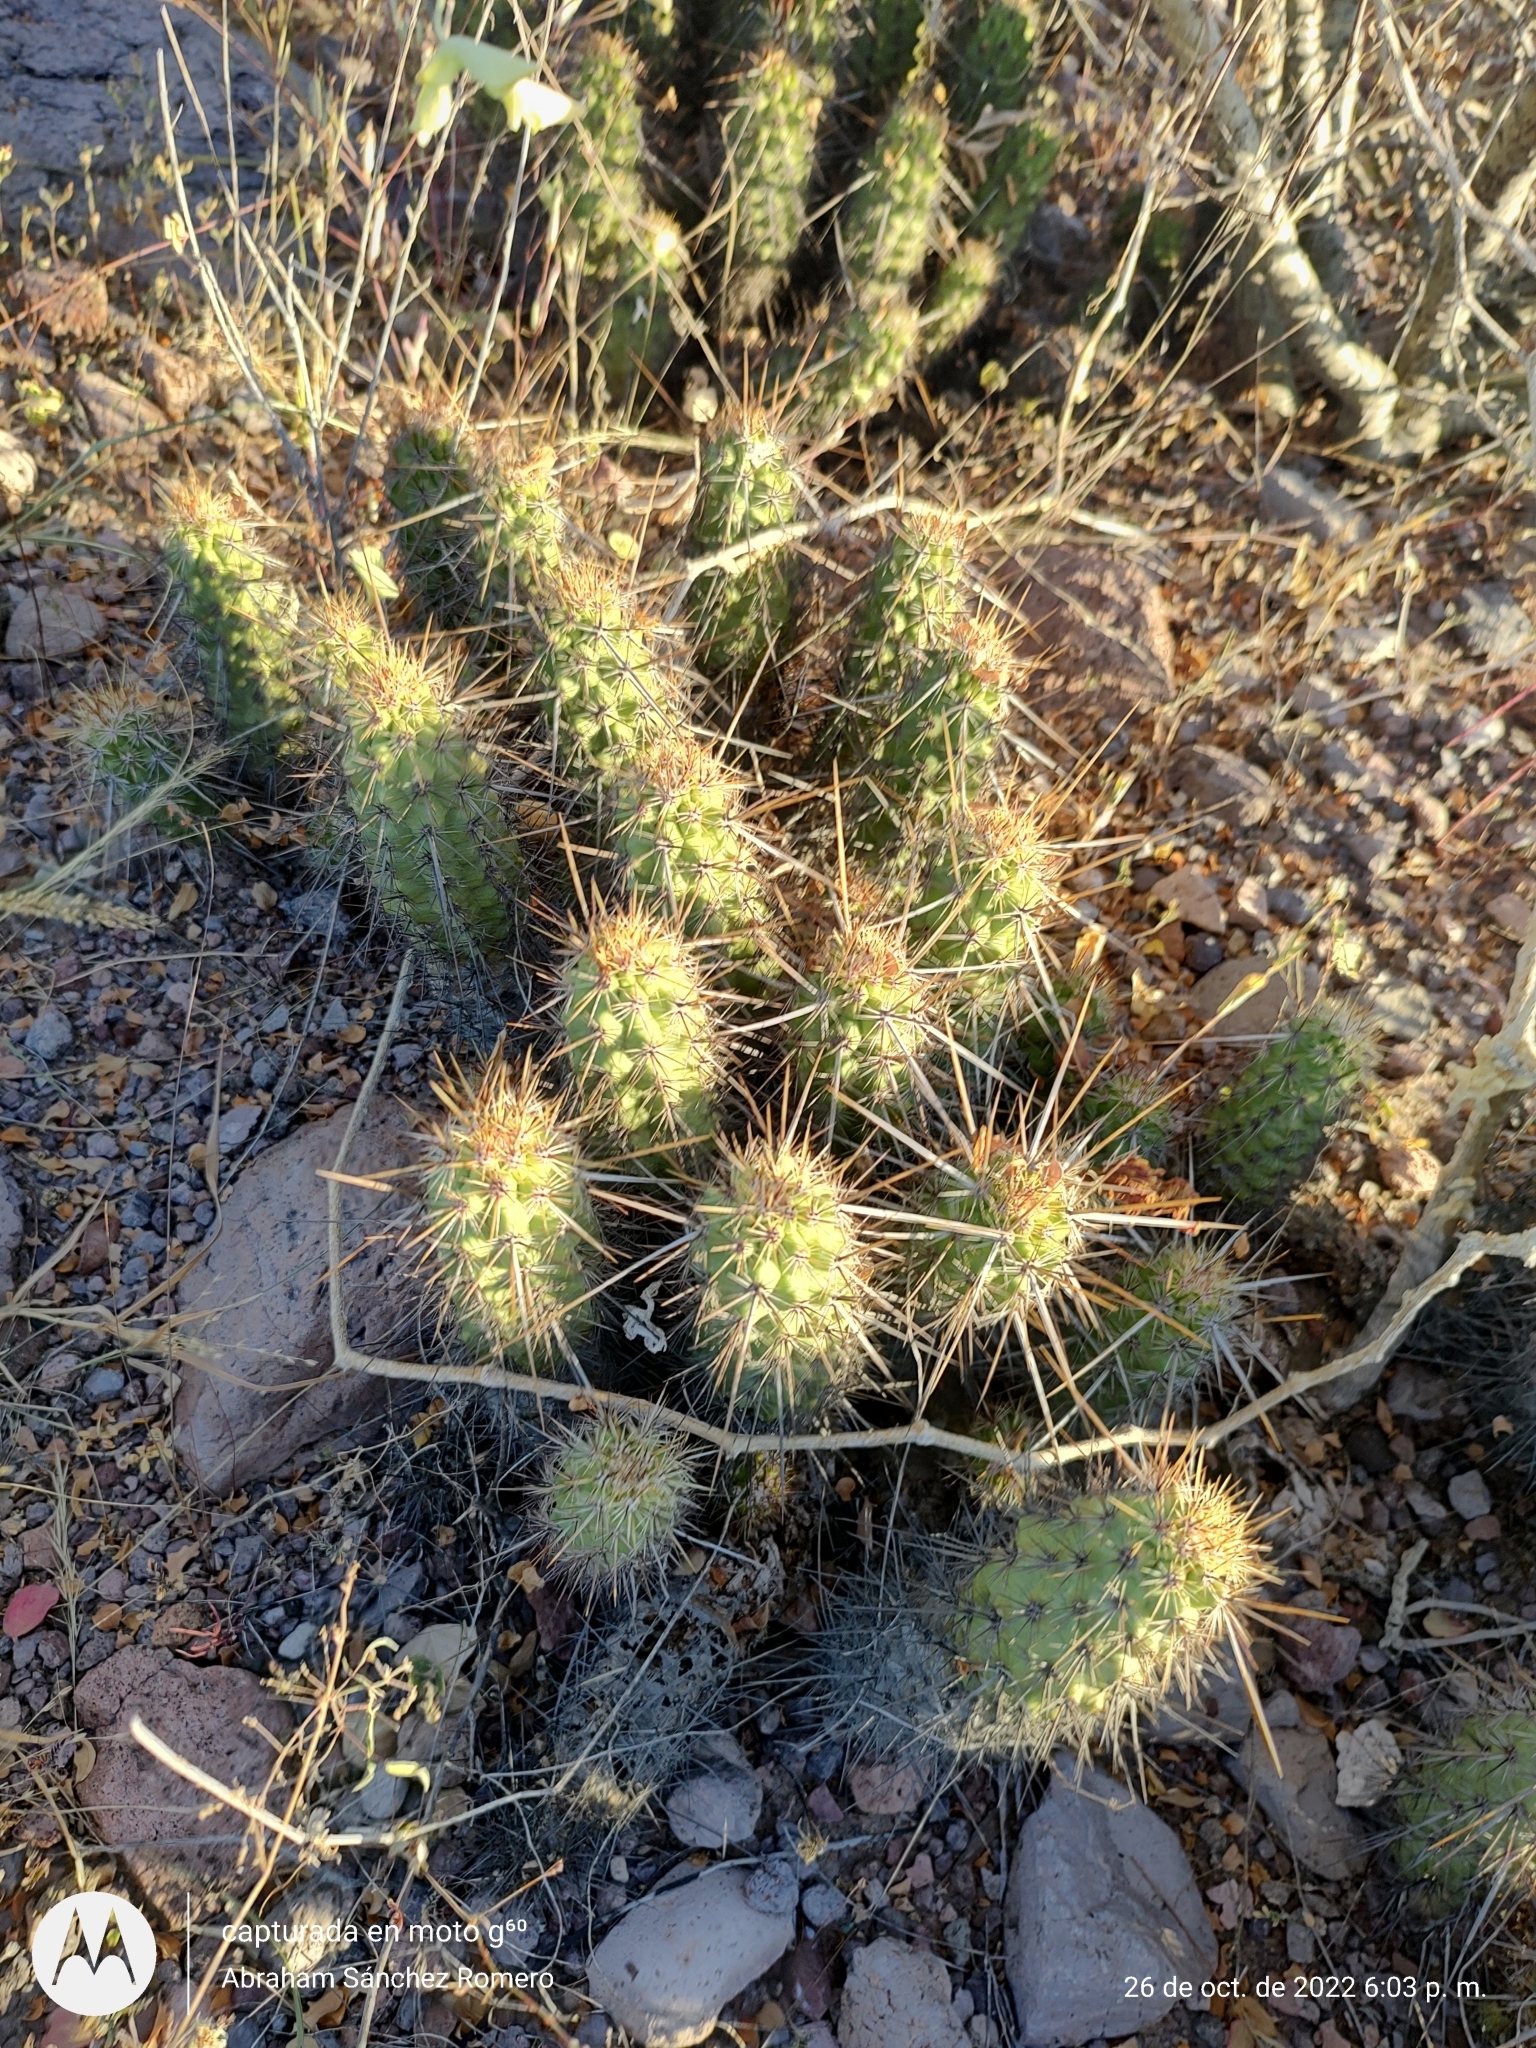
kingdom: Plantae
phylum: Tracheophyta
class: Magnoliopsida
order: Caryophyllales
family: Cactaceae
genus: Echinocereus
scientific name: Echinocereus brandegeei
